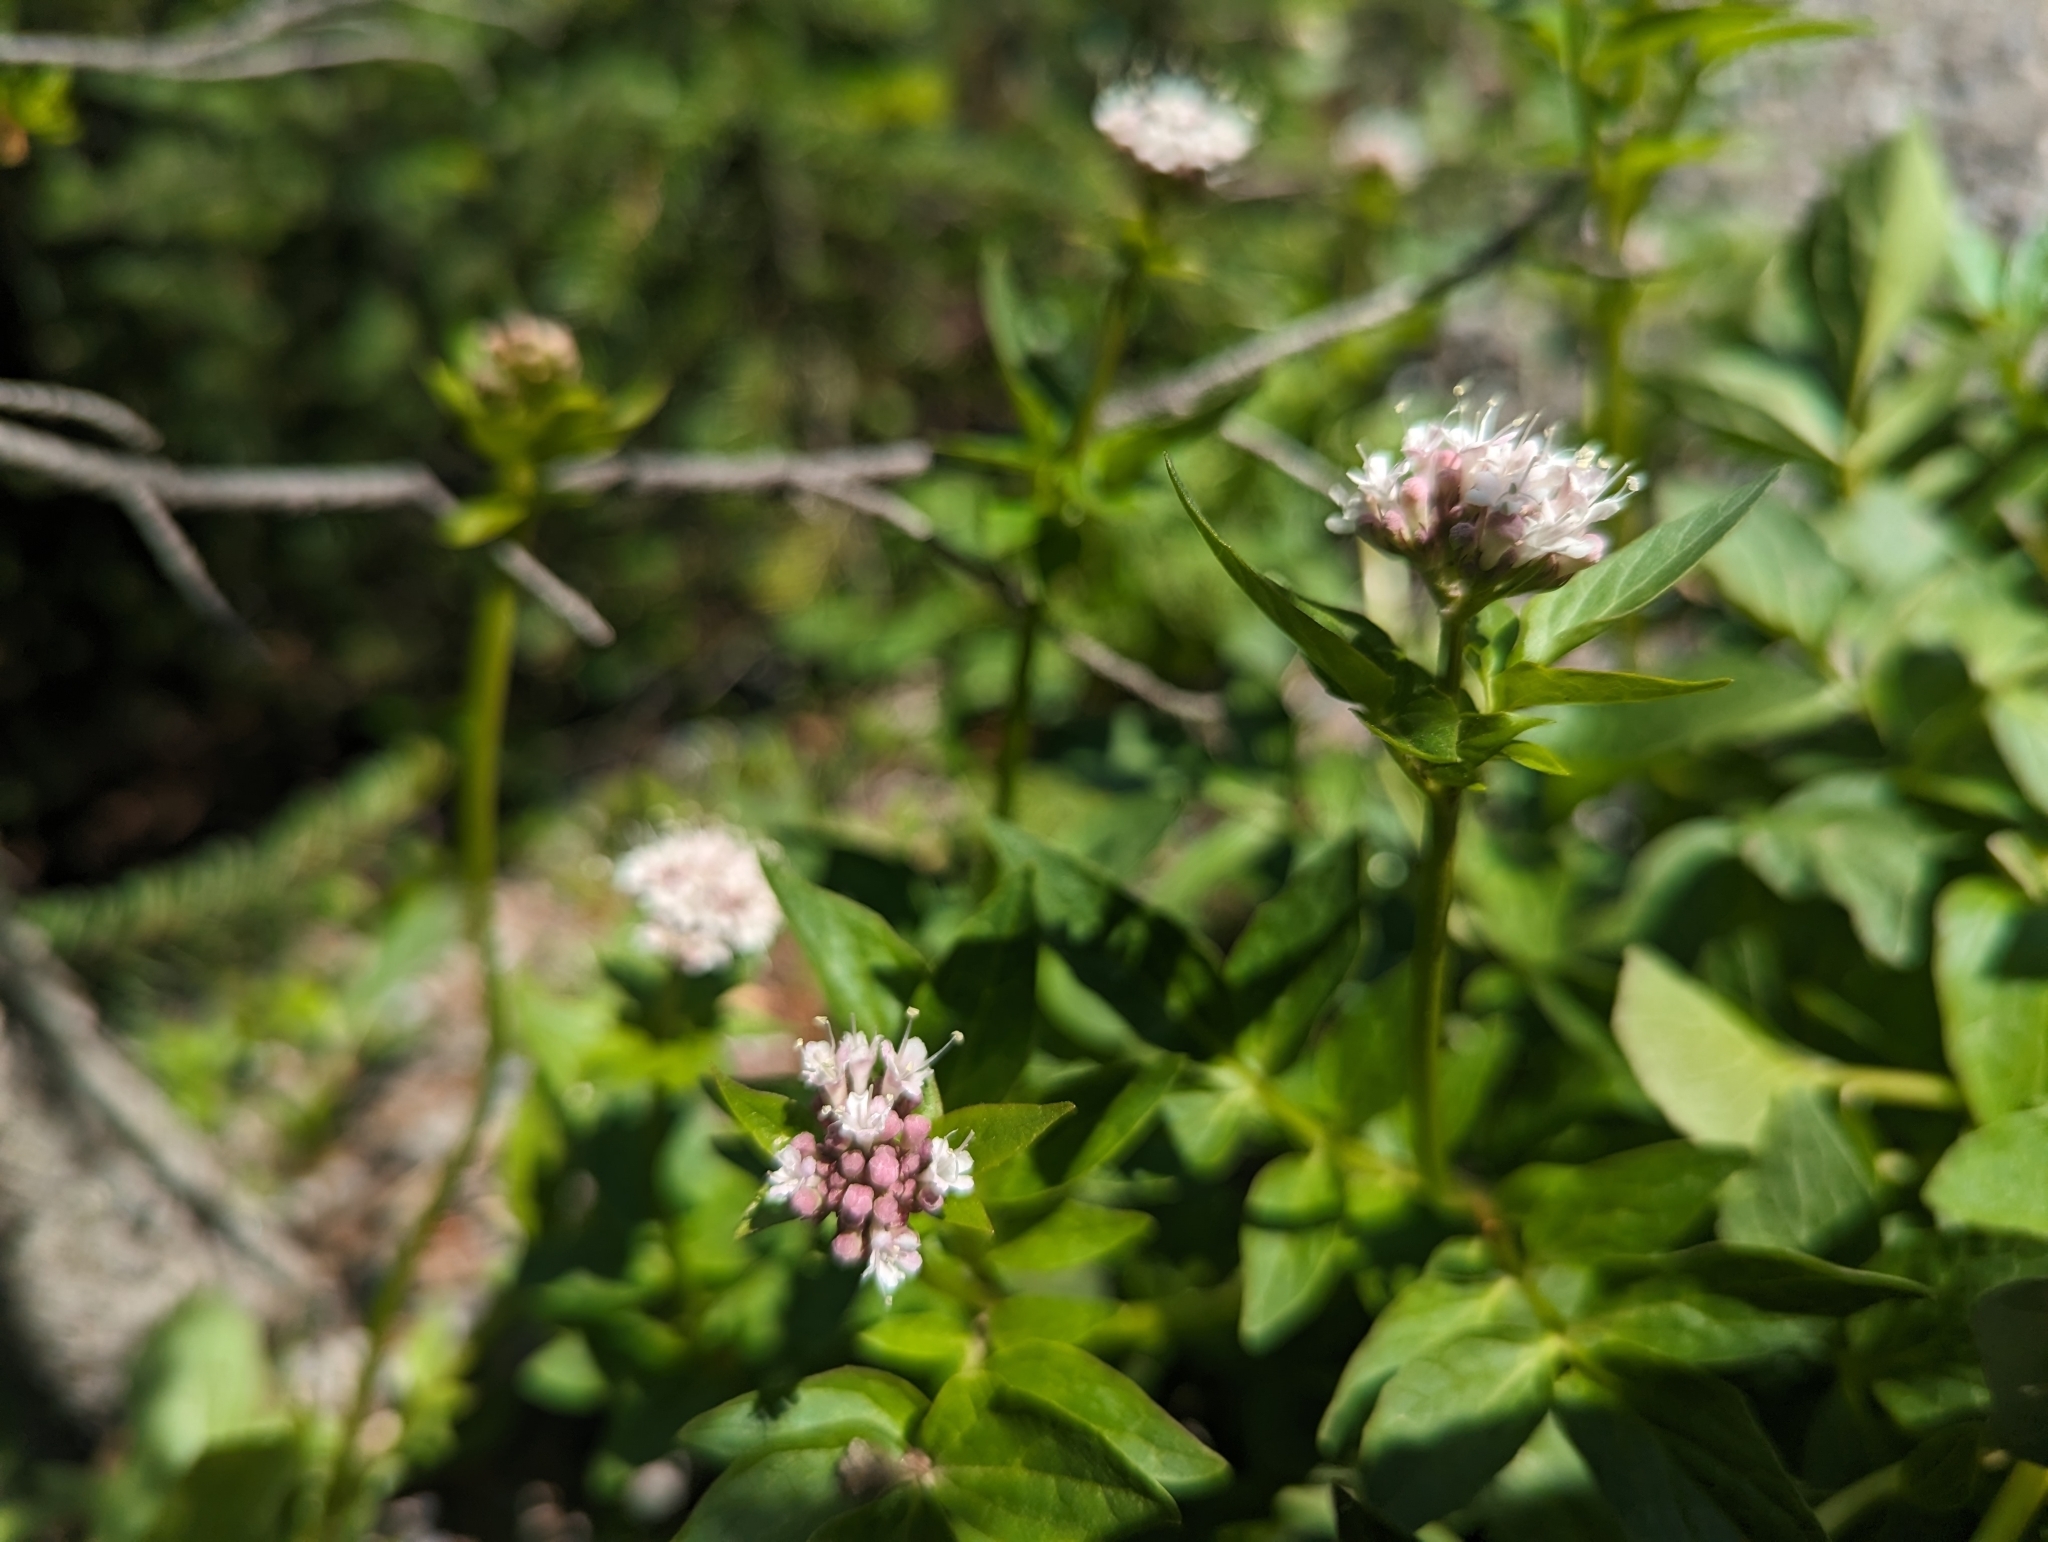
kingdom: Plantae
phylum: Tracheophyta
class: Magnoliopsida
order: Dipsacales
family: Caprifoliaceae
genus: Valeriana
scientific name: Valeriana sitchensis
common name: Pacific valerian
